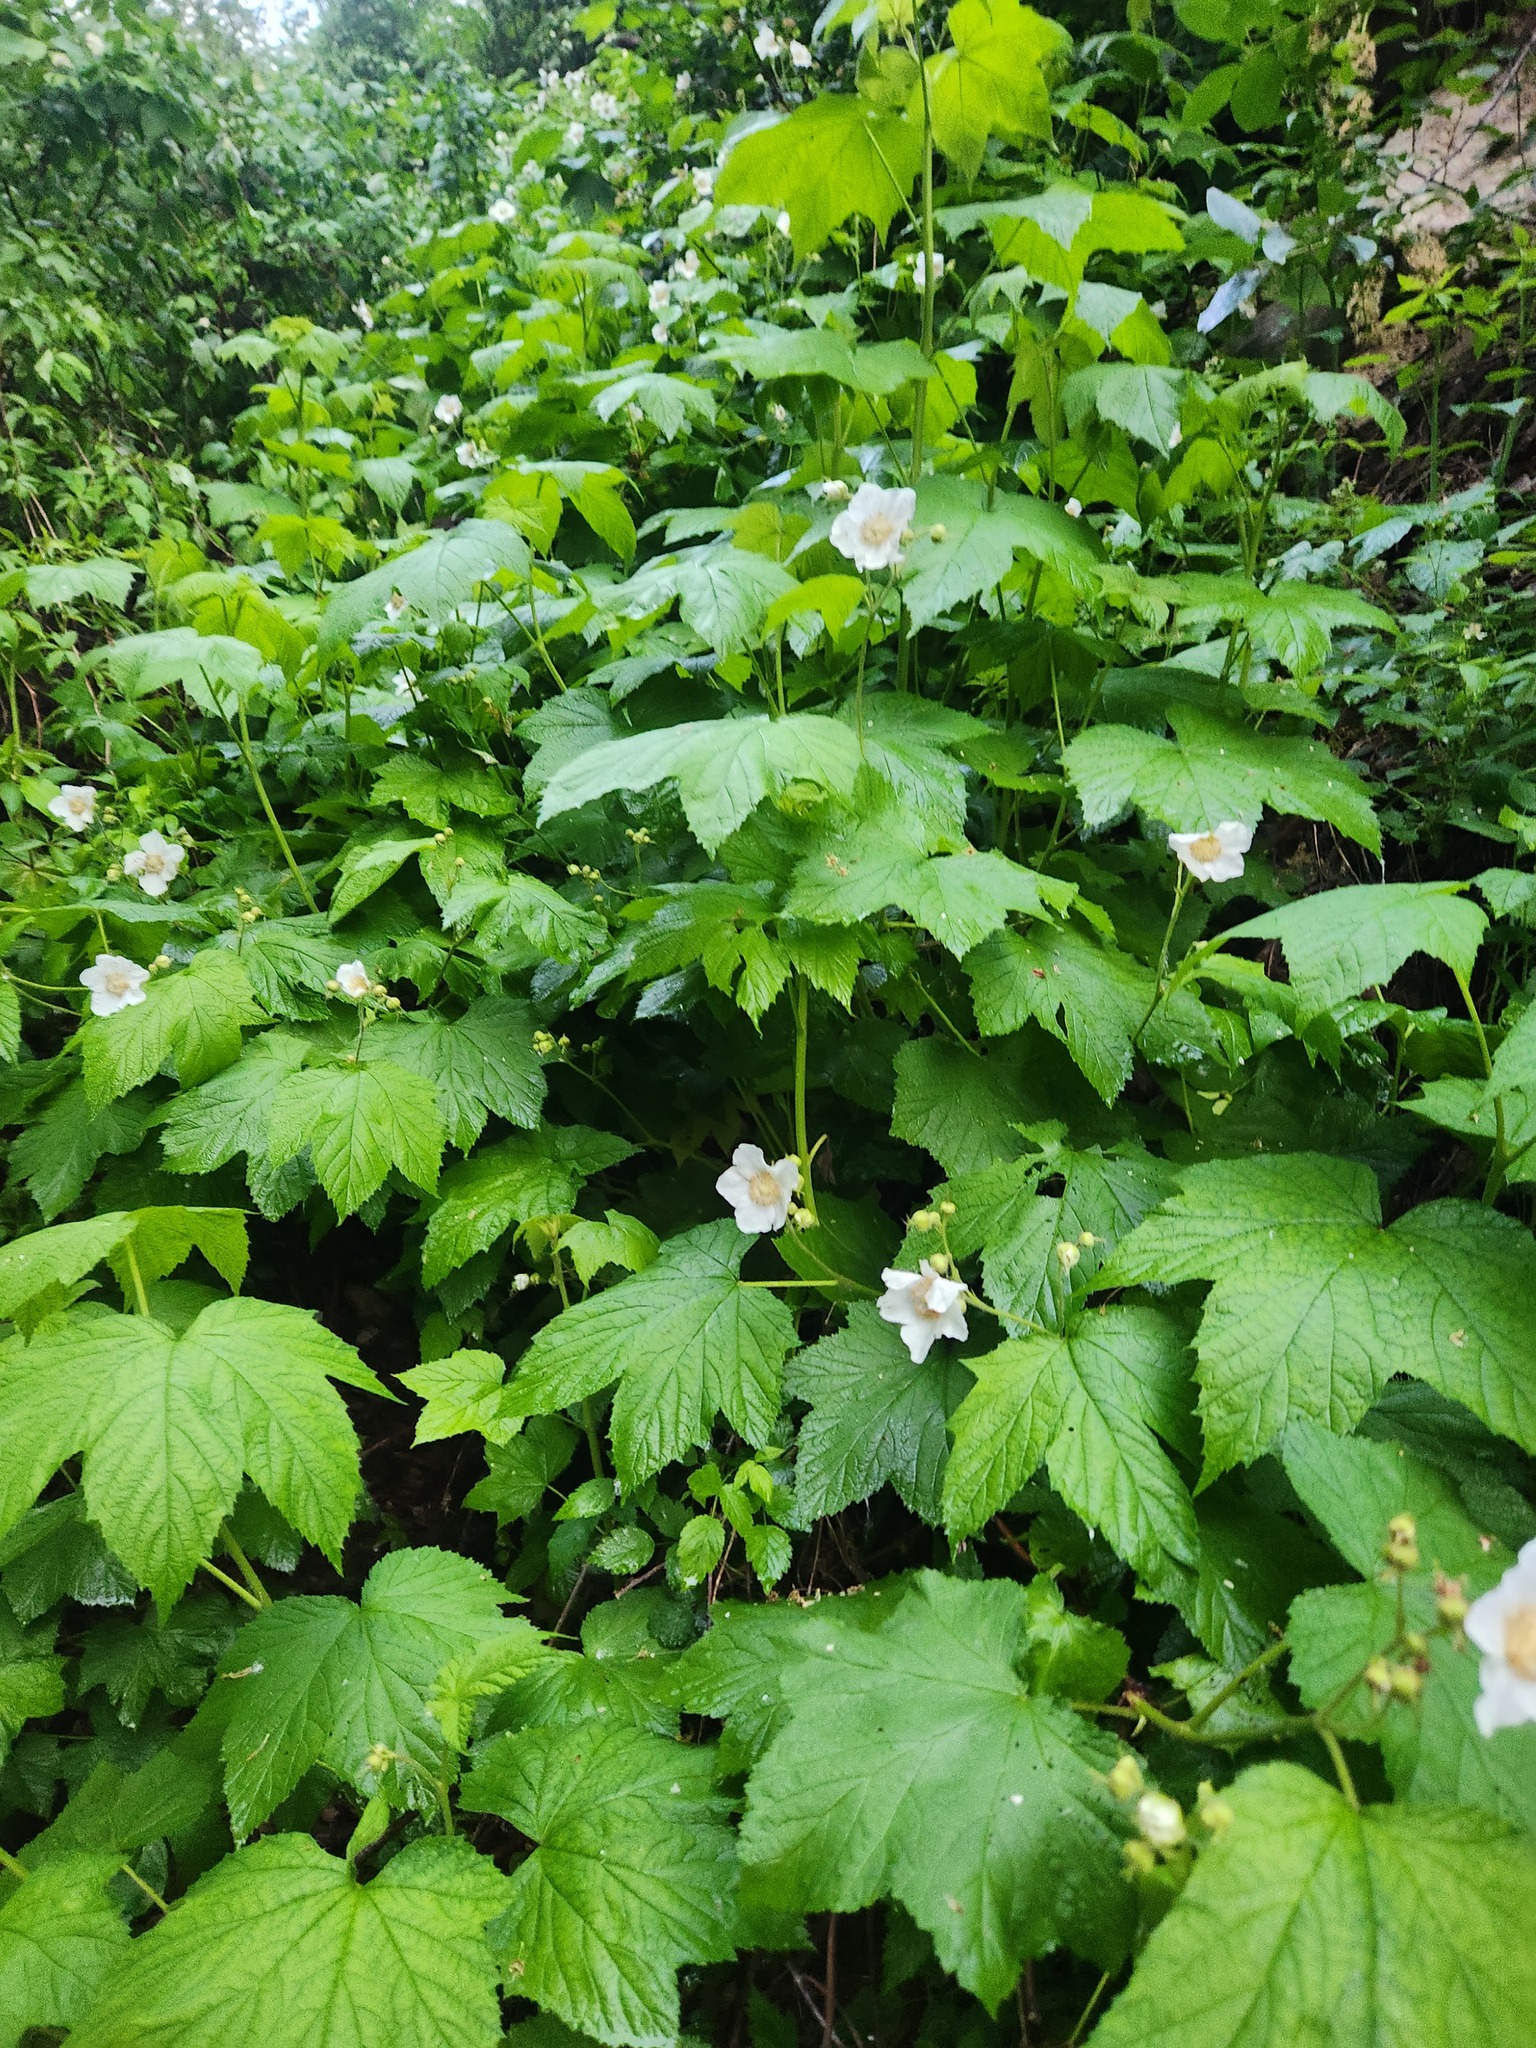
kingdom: Plantae
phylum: Tracheophyta
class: Magnoliopsida
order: Rosales
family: Rosaceae
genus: Rubus
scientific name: Rubus parviflorus
